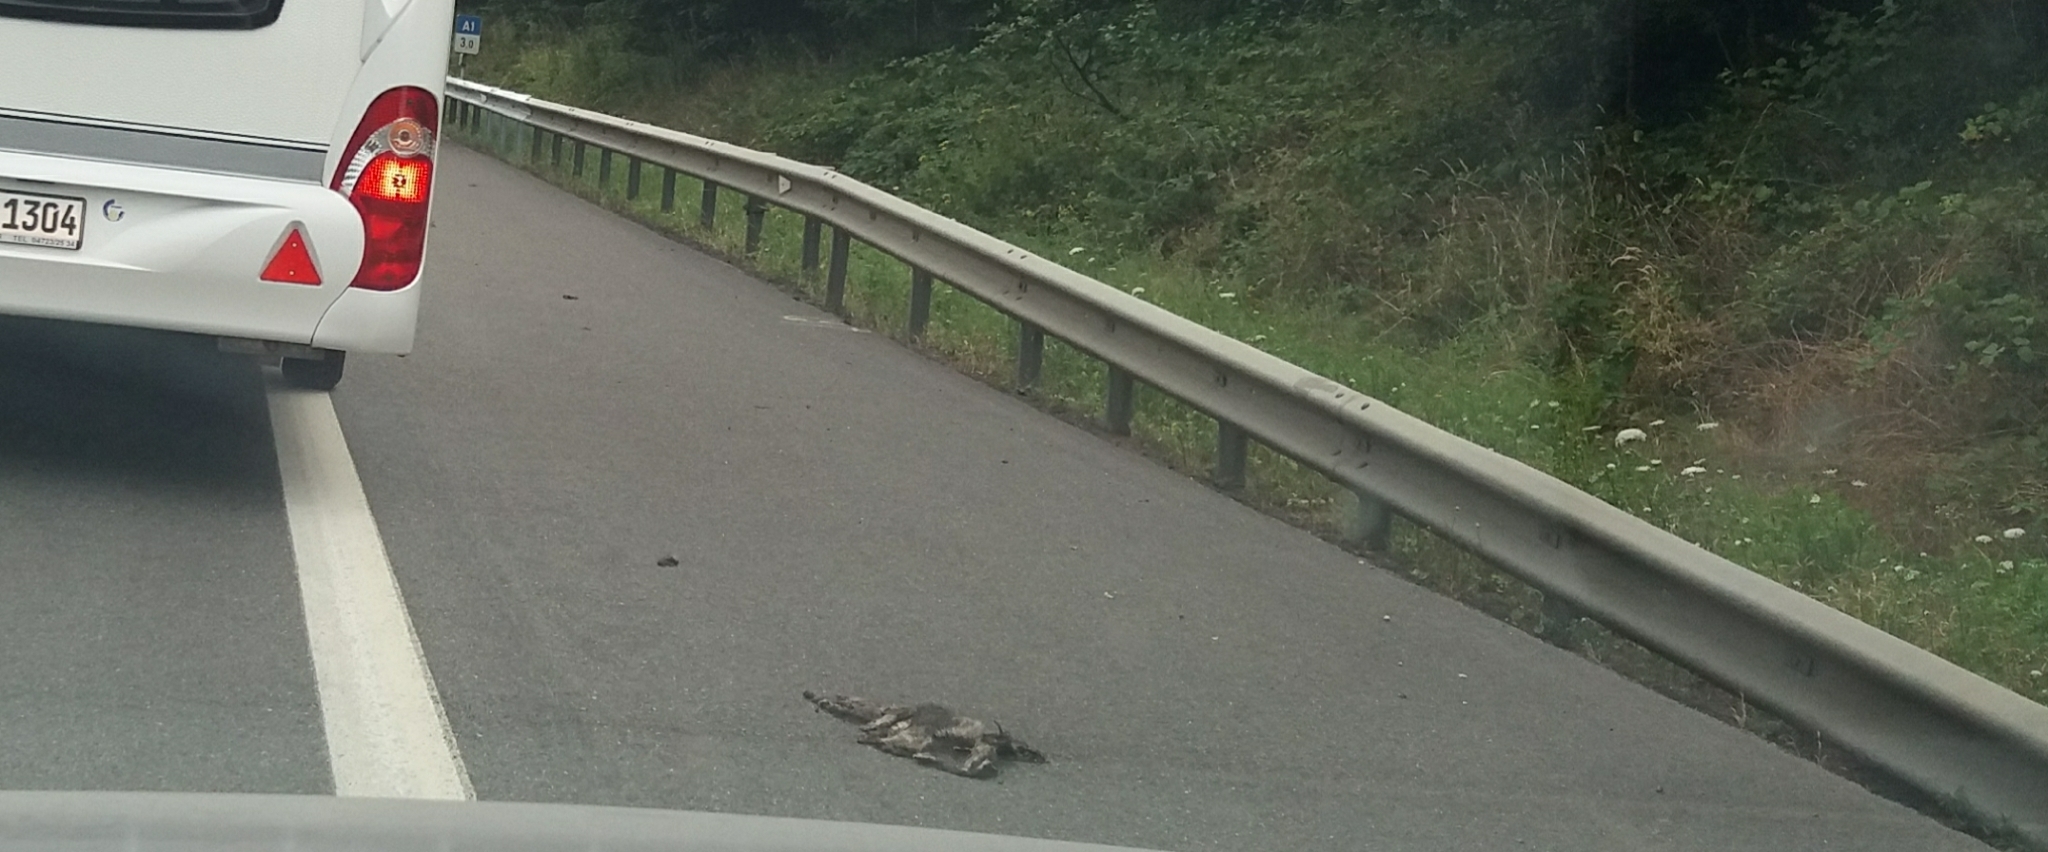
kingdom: Animalia
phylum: Chordata
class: Mammalia
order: Carnivora
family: Procyonidae
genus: Procyon
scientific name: Procyon lotor
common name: Raccoon
